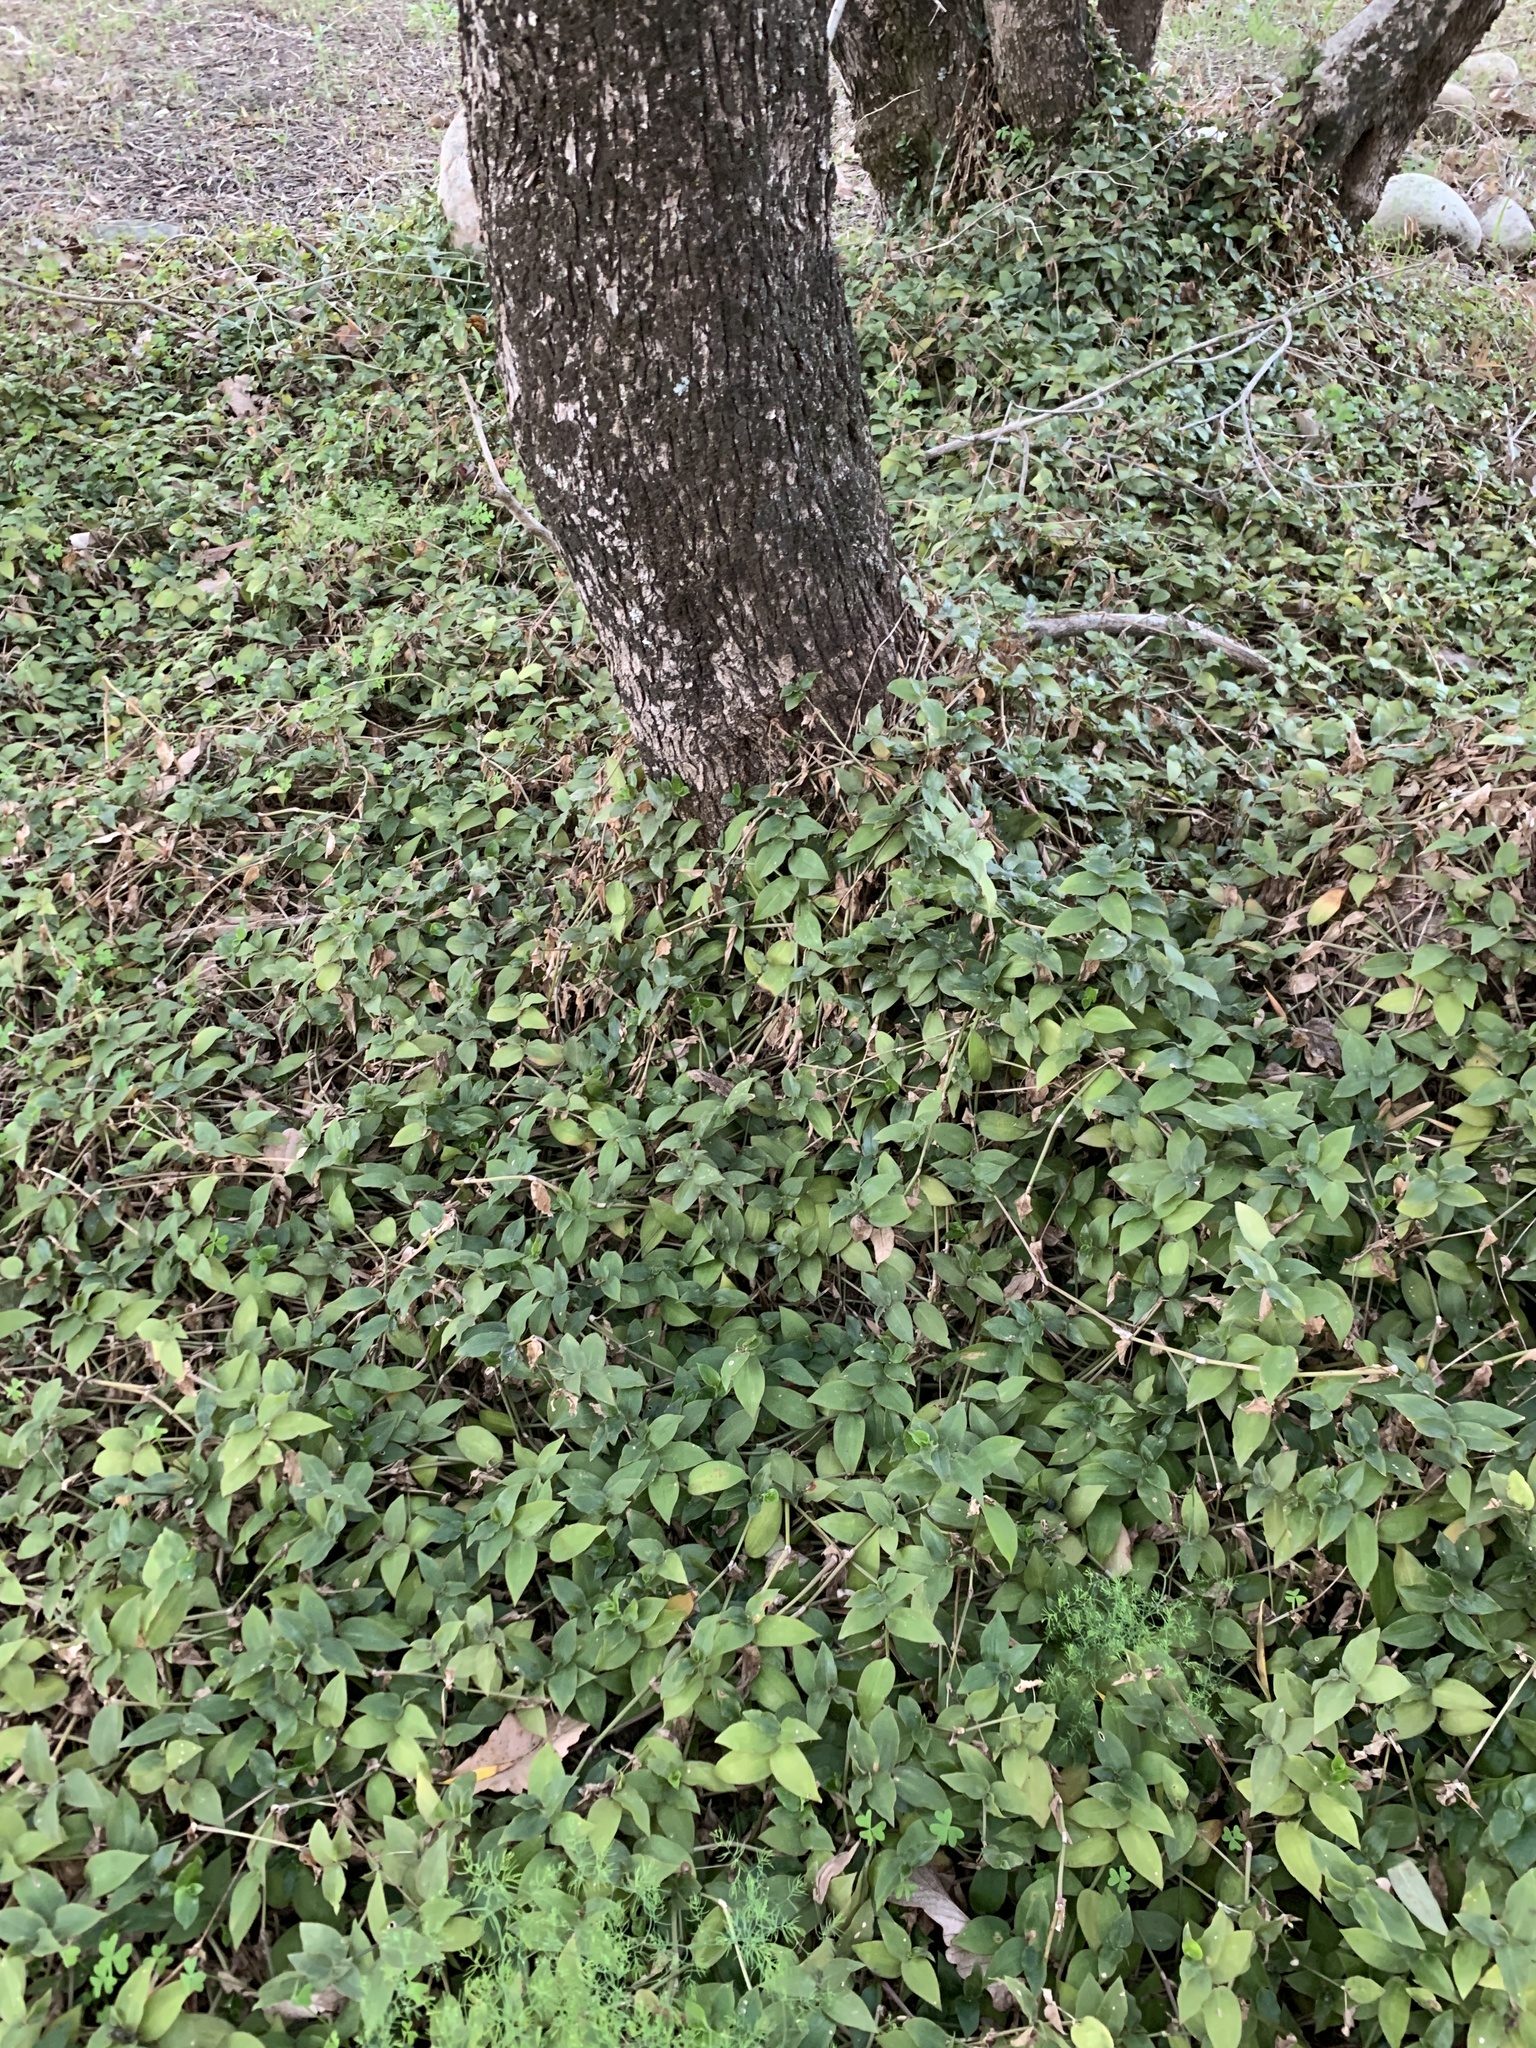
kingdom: Plantae
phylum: Tracheophyta
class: Liliopsida
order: Commelinales
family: Commelinaceae
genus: Tradescantia
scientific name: Tradescantia fluminensis
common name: Wandering-jew
